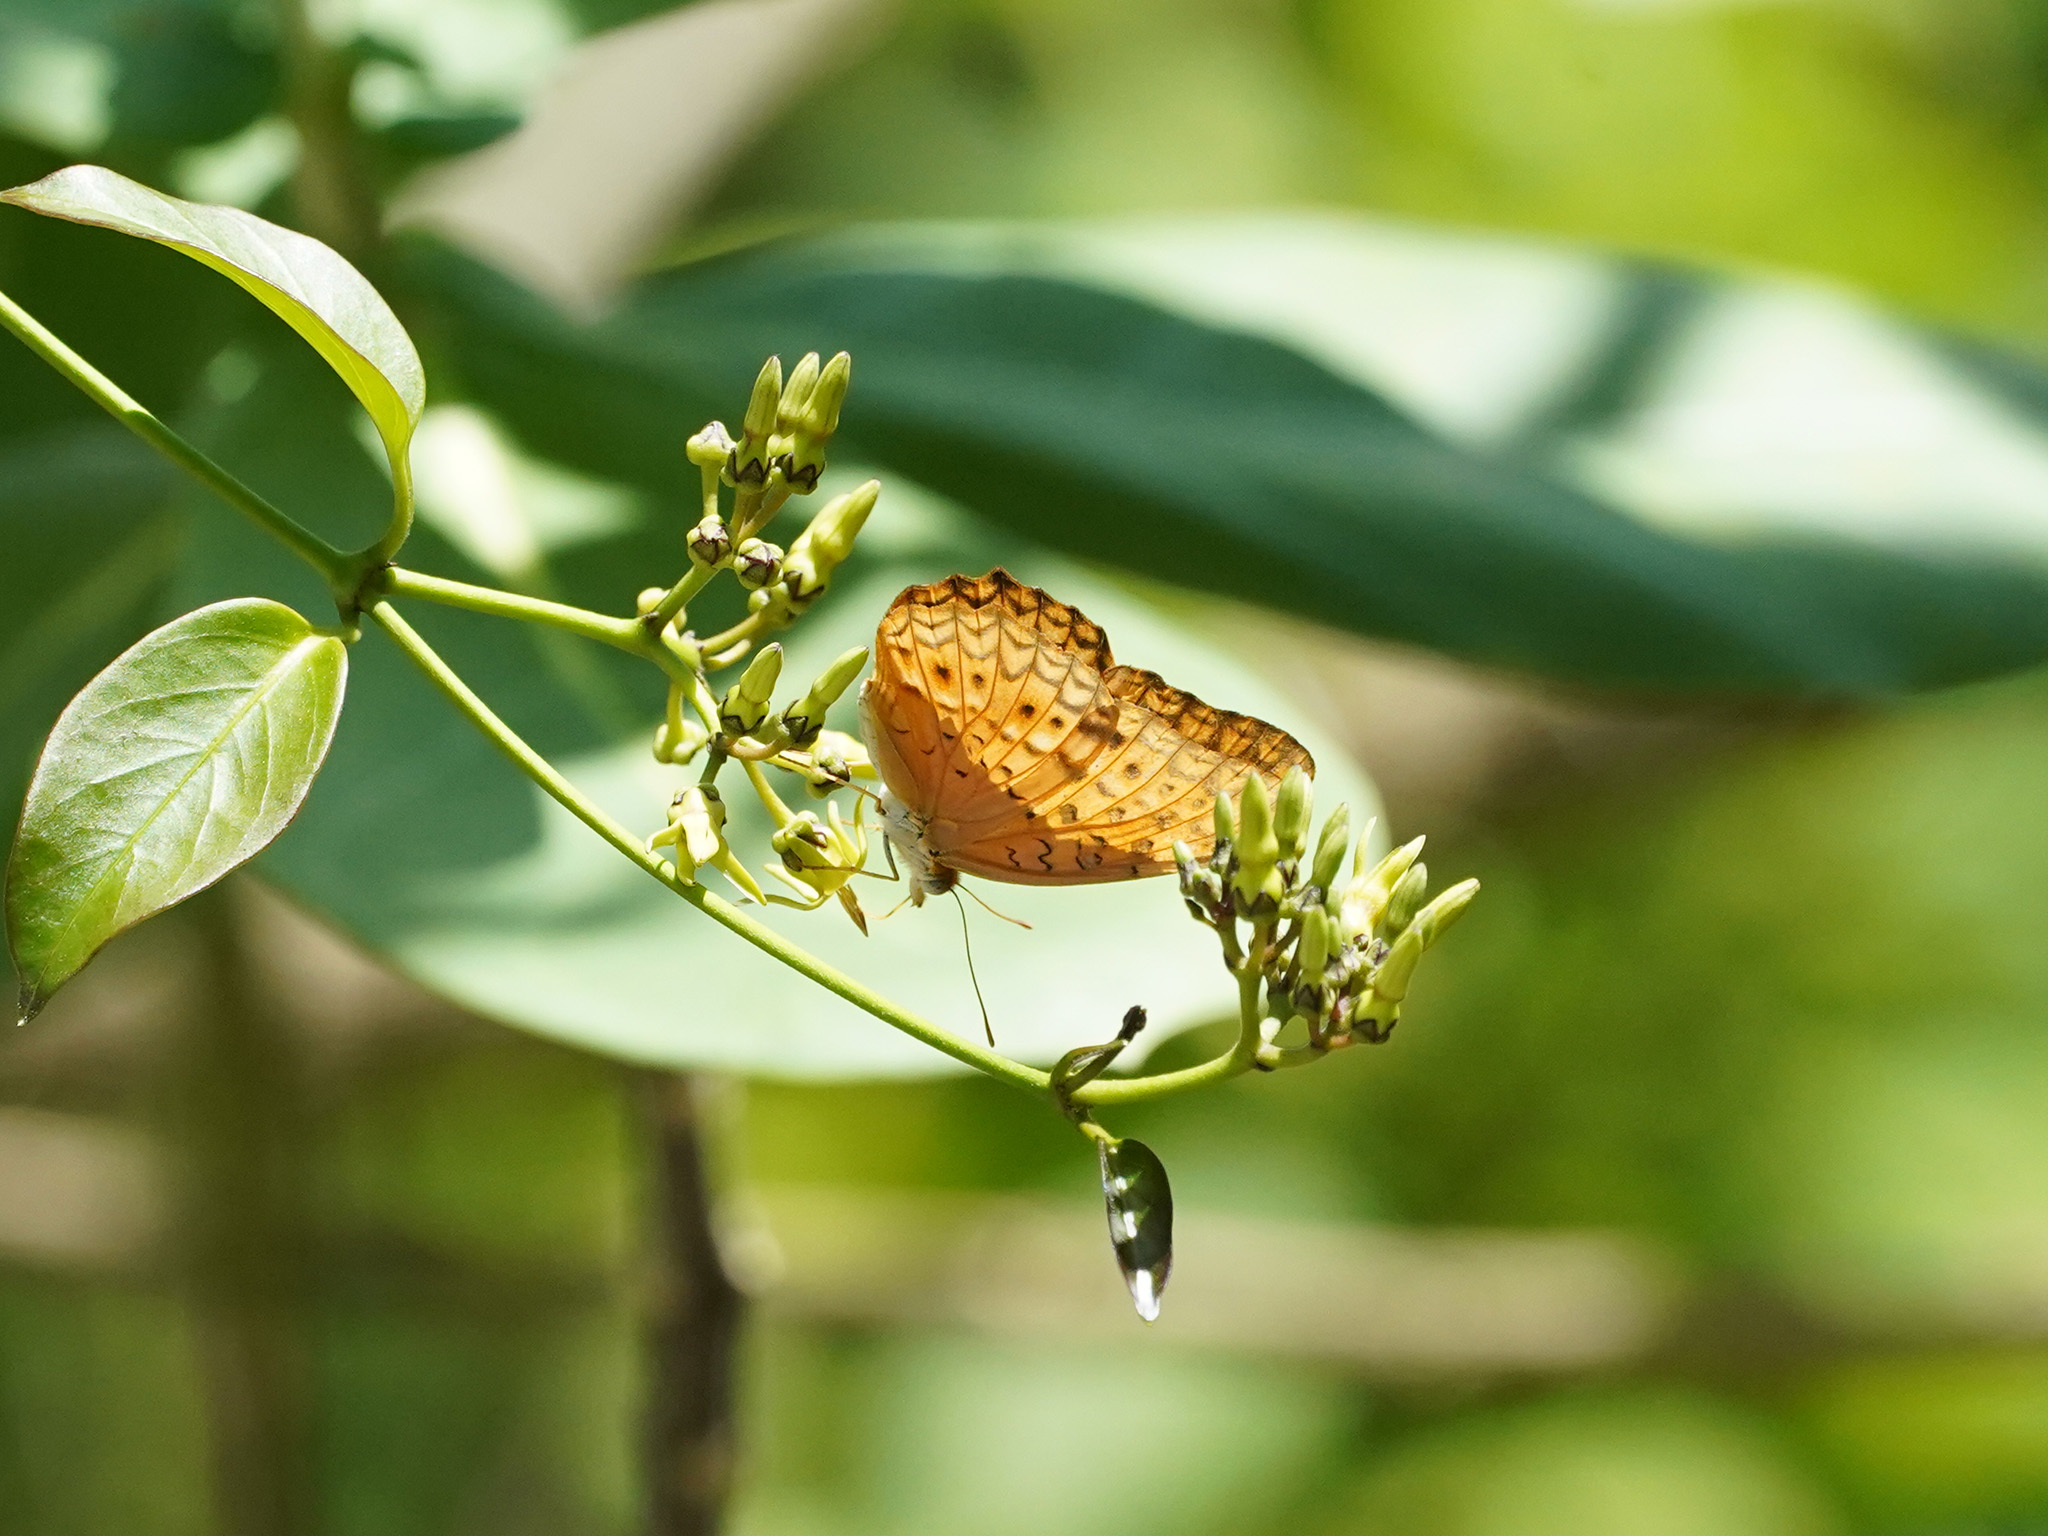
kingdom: Animalia
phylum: Arthropoda
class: Insecta
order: Lepidoptera
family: Nymphalidae
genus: Phalanta
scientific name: Phalanta phalantha
